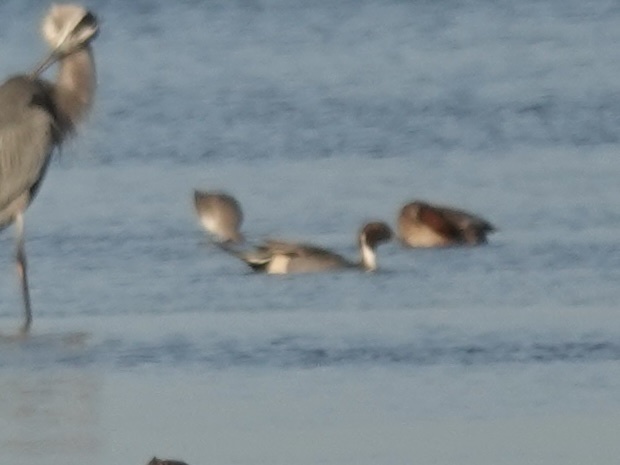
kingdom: Animalia
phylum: Chordata
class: Aves
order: Anseriformes
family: Anatidae
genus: Anas
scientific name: Anas acuta
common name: Northern pintail
